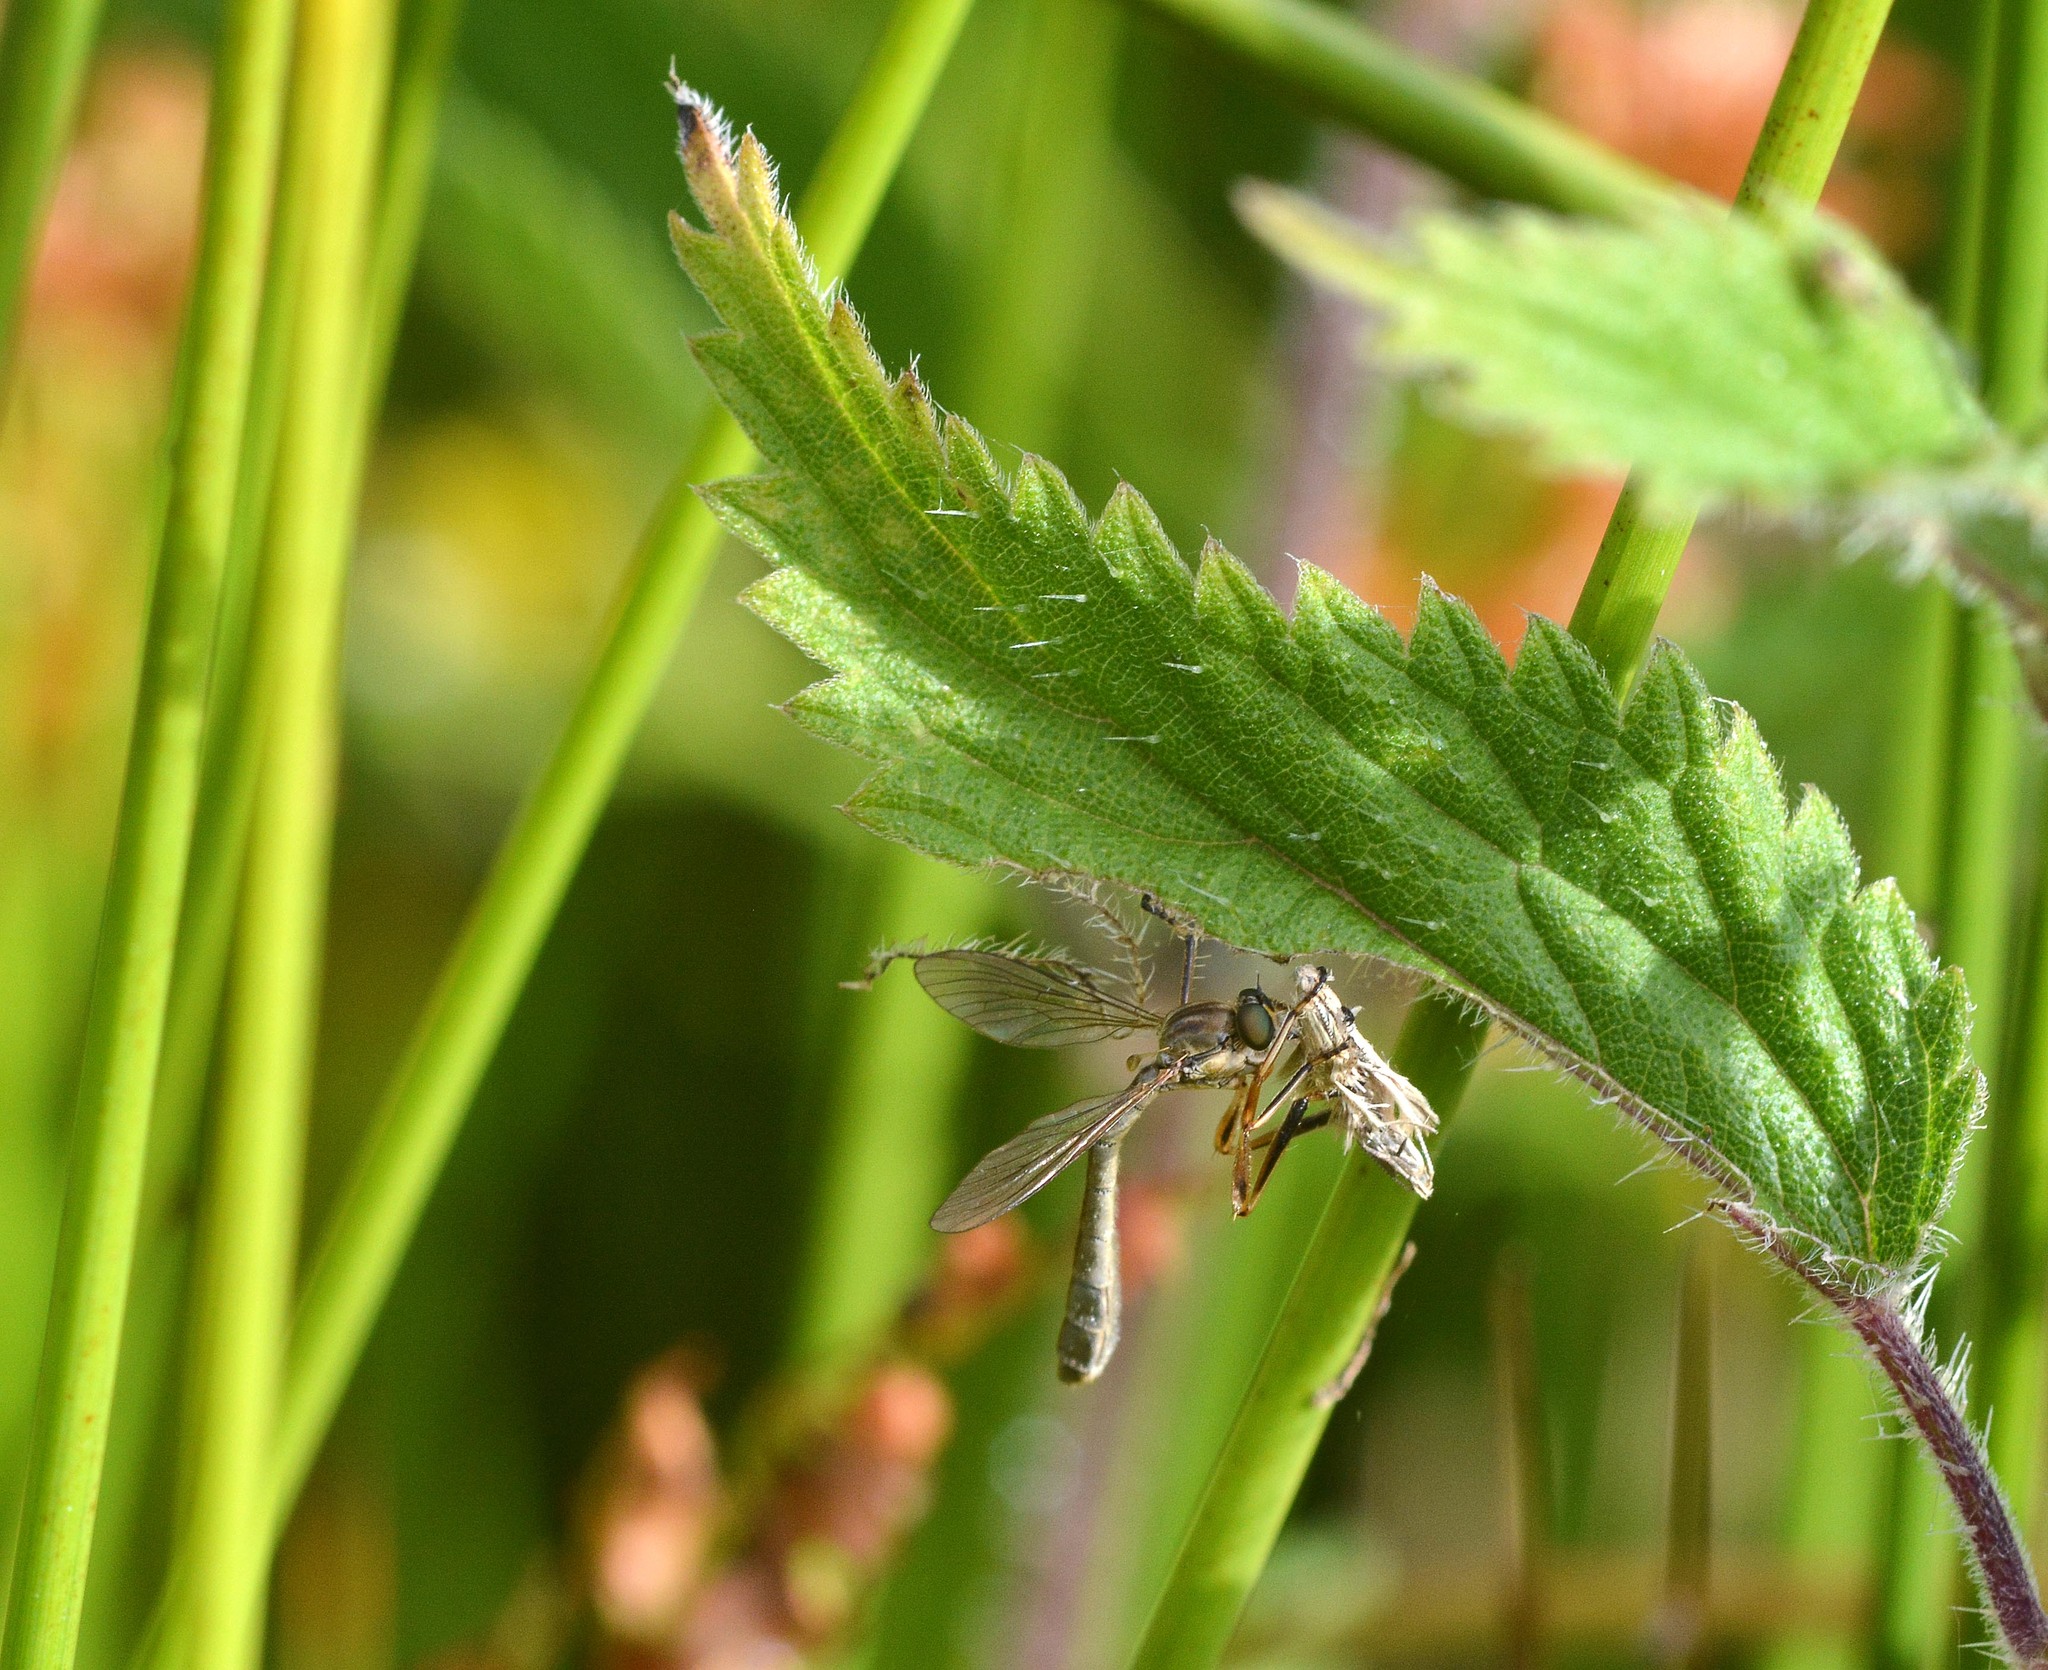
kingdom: Animalia
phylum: Arthropoda
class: Insecta
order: Diptera
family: Asilidae
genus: Leptogaster
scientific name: Leptogaster cylindrica
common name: Striped slender robberfly
